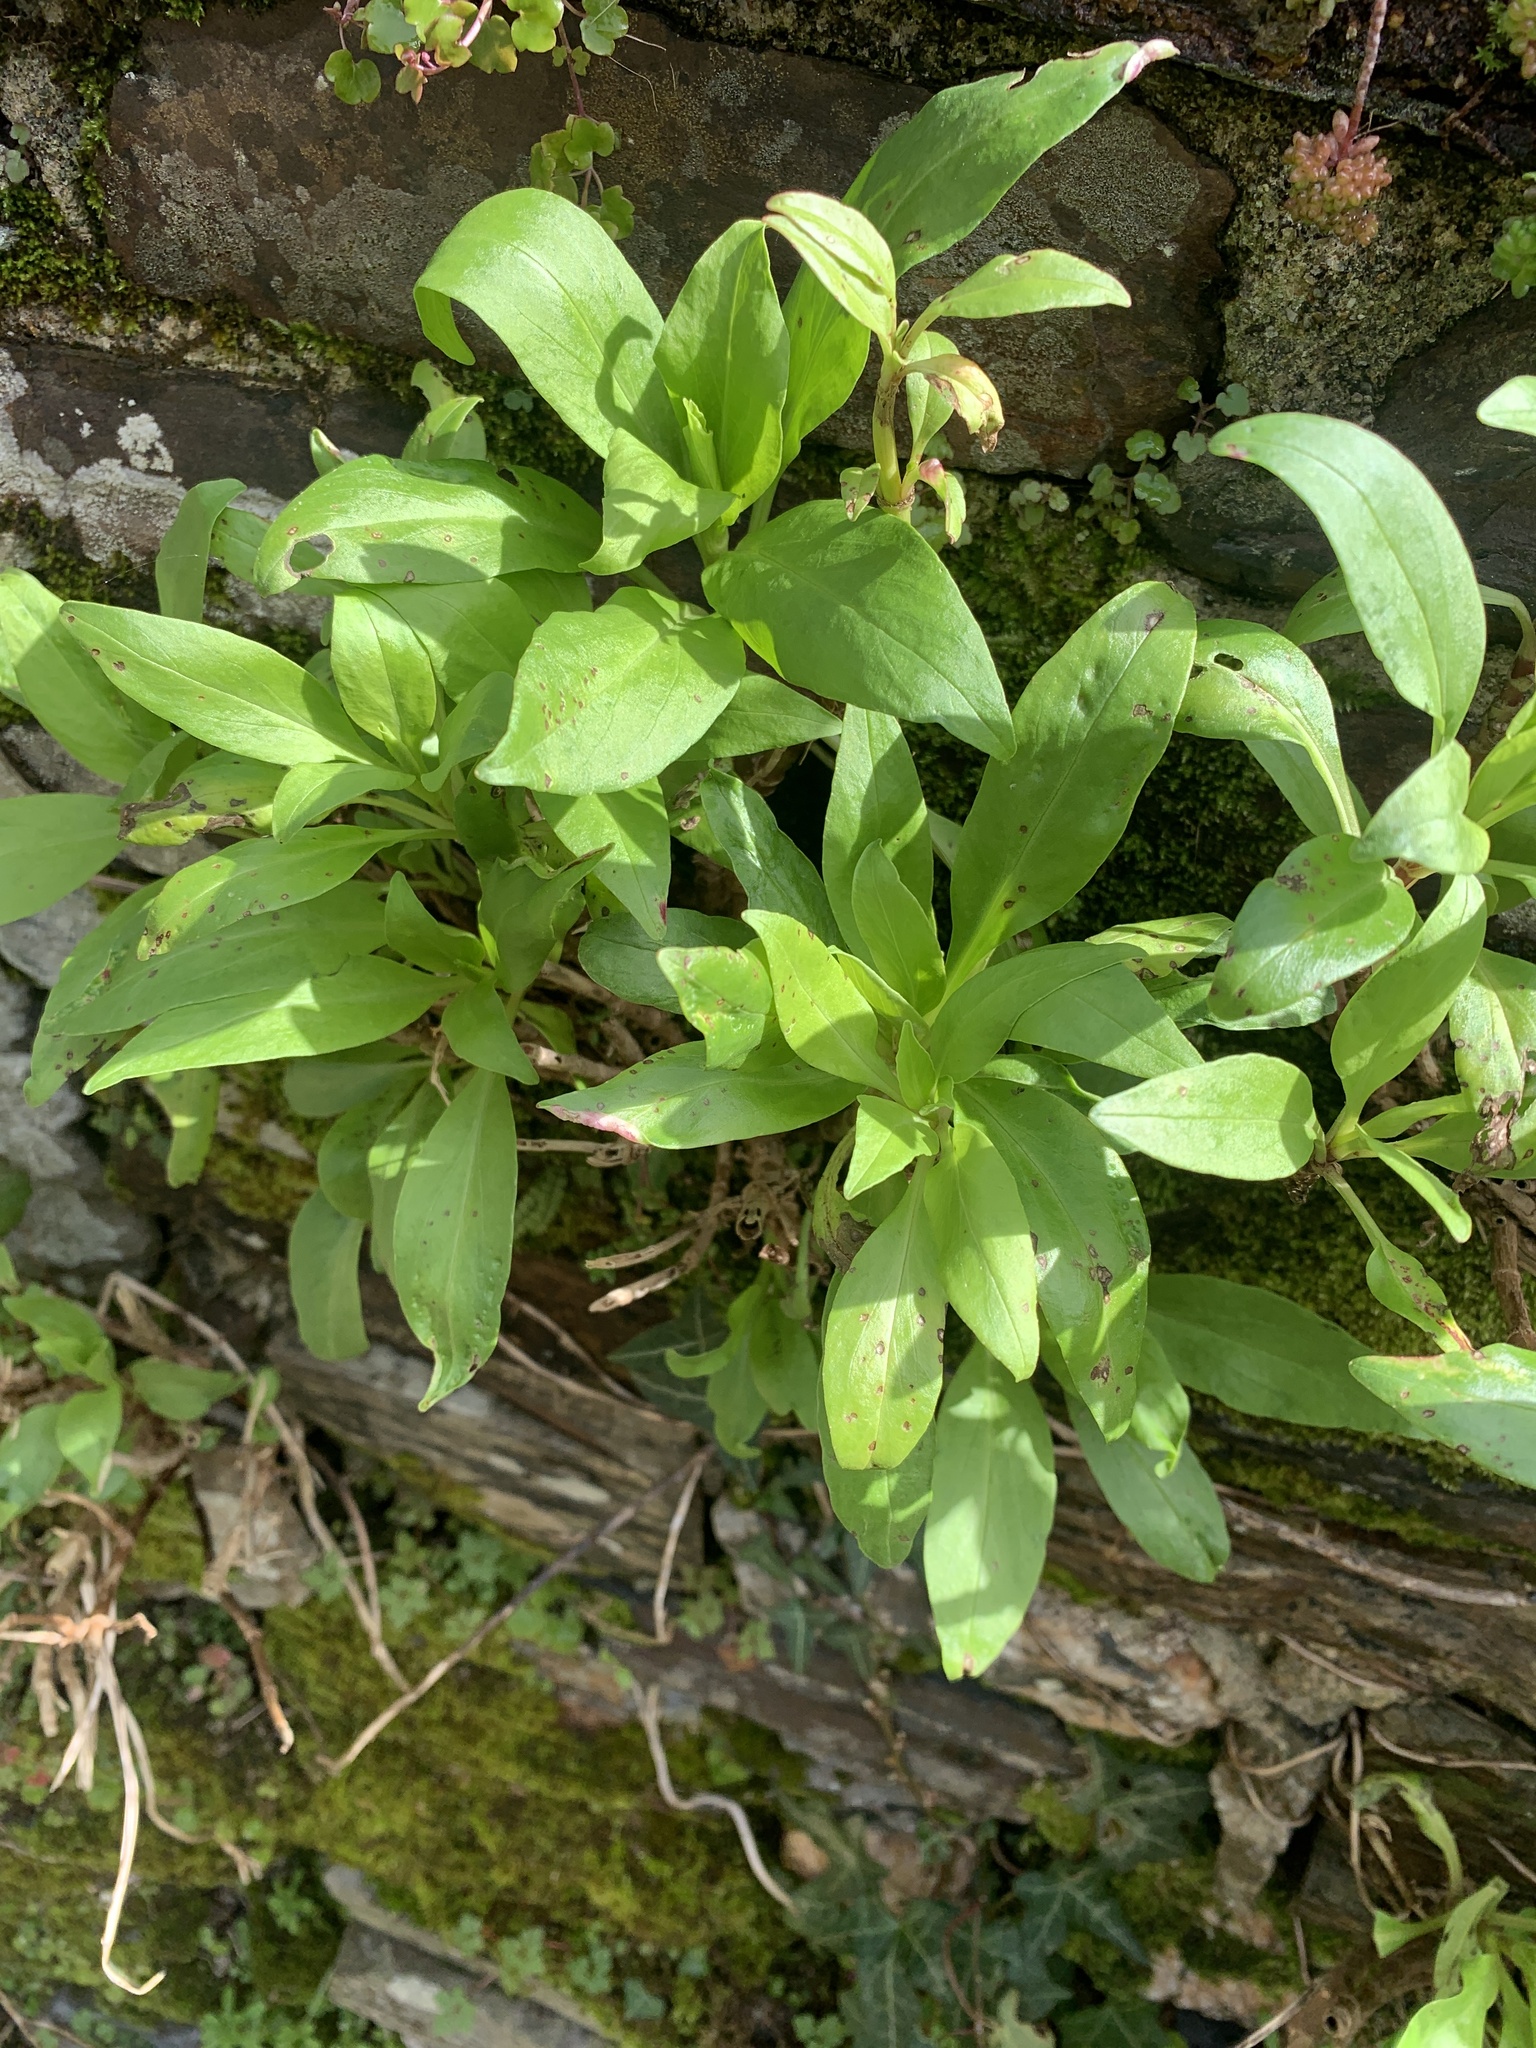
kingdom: Plantae
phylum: Tracheophyta
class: Magnoliopsida
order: Dipsacales
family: Caprifoliaceae
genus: Centranthus
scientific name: Centranthus ruber
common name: Red valerian
